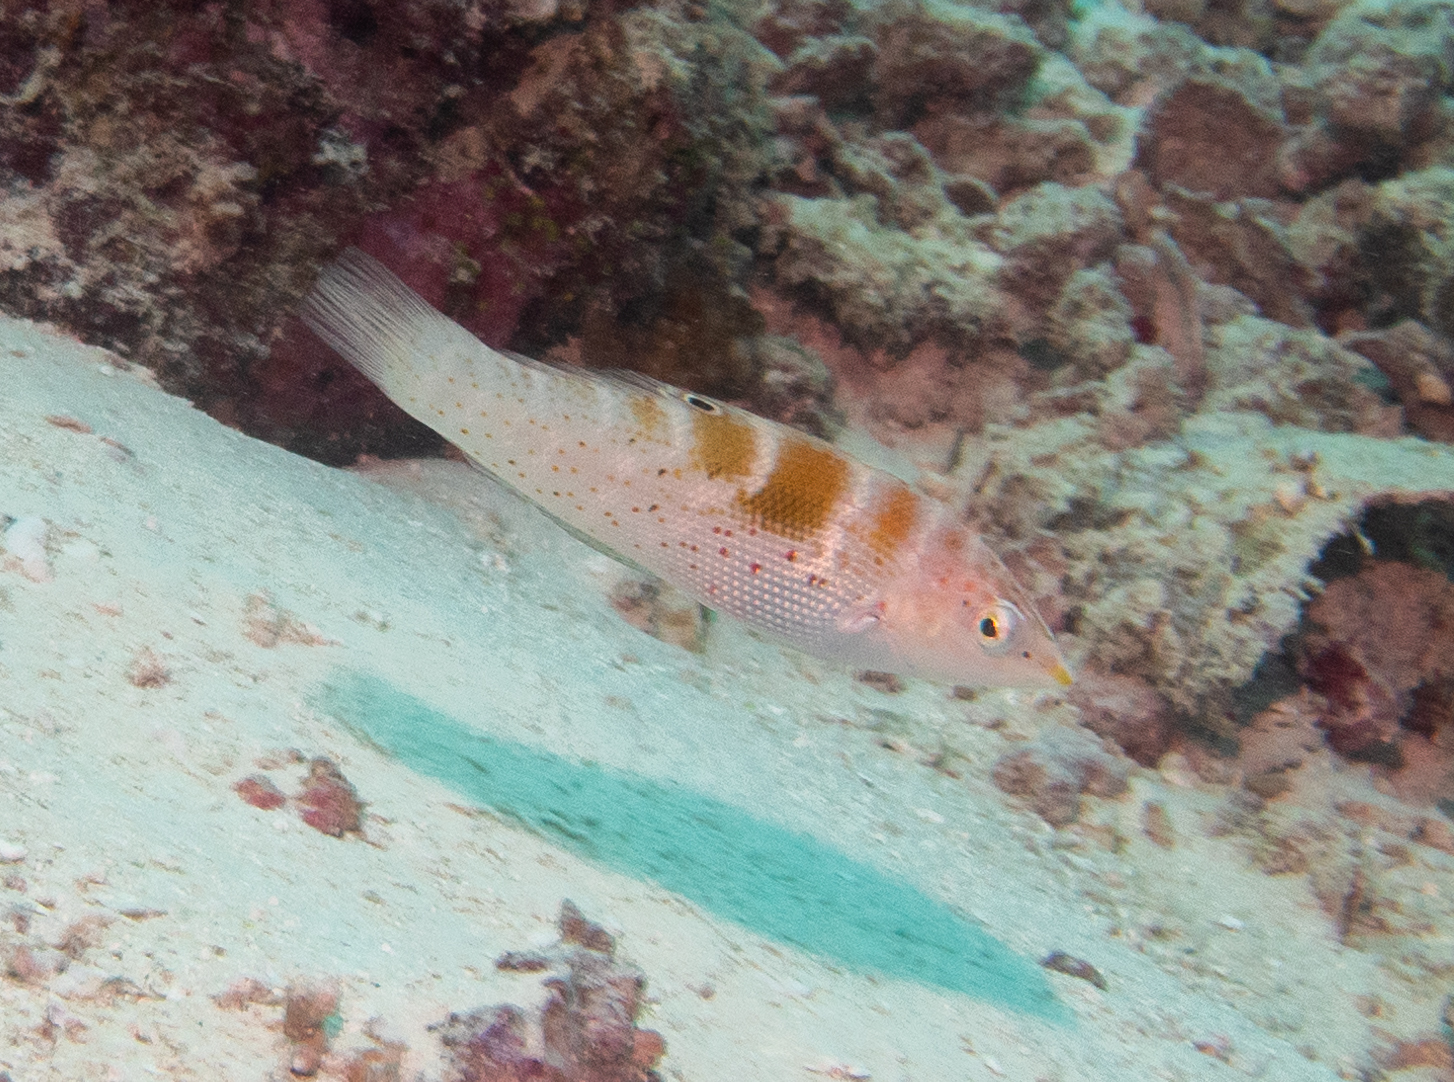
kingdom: Animalia
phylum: Chordata
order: Perciformes
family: Labridae
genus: Coris
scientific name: Coris batuensis
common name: Batu coris
